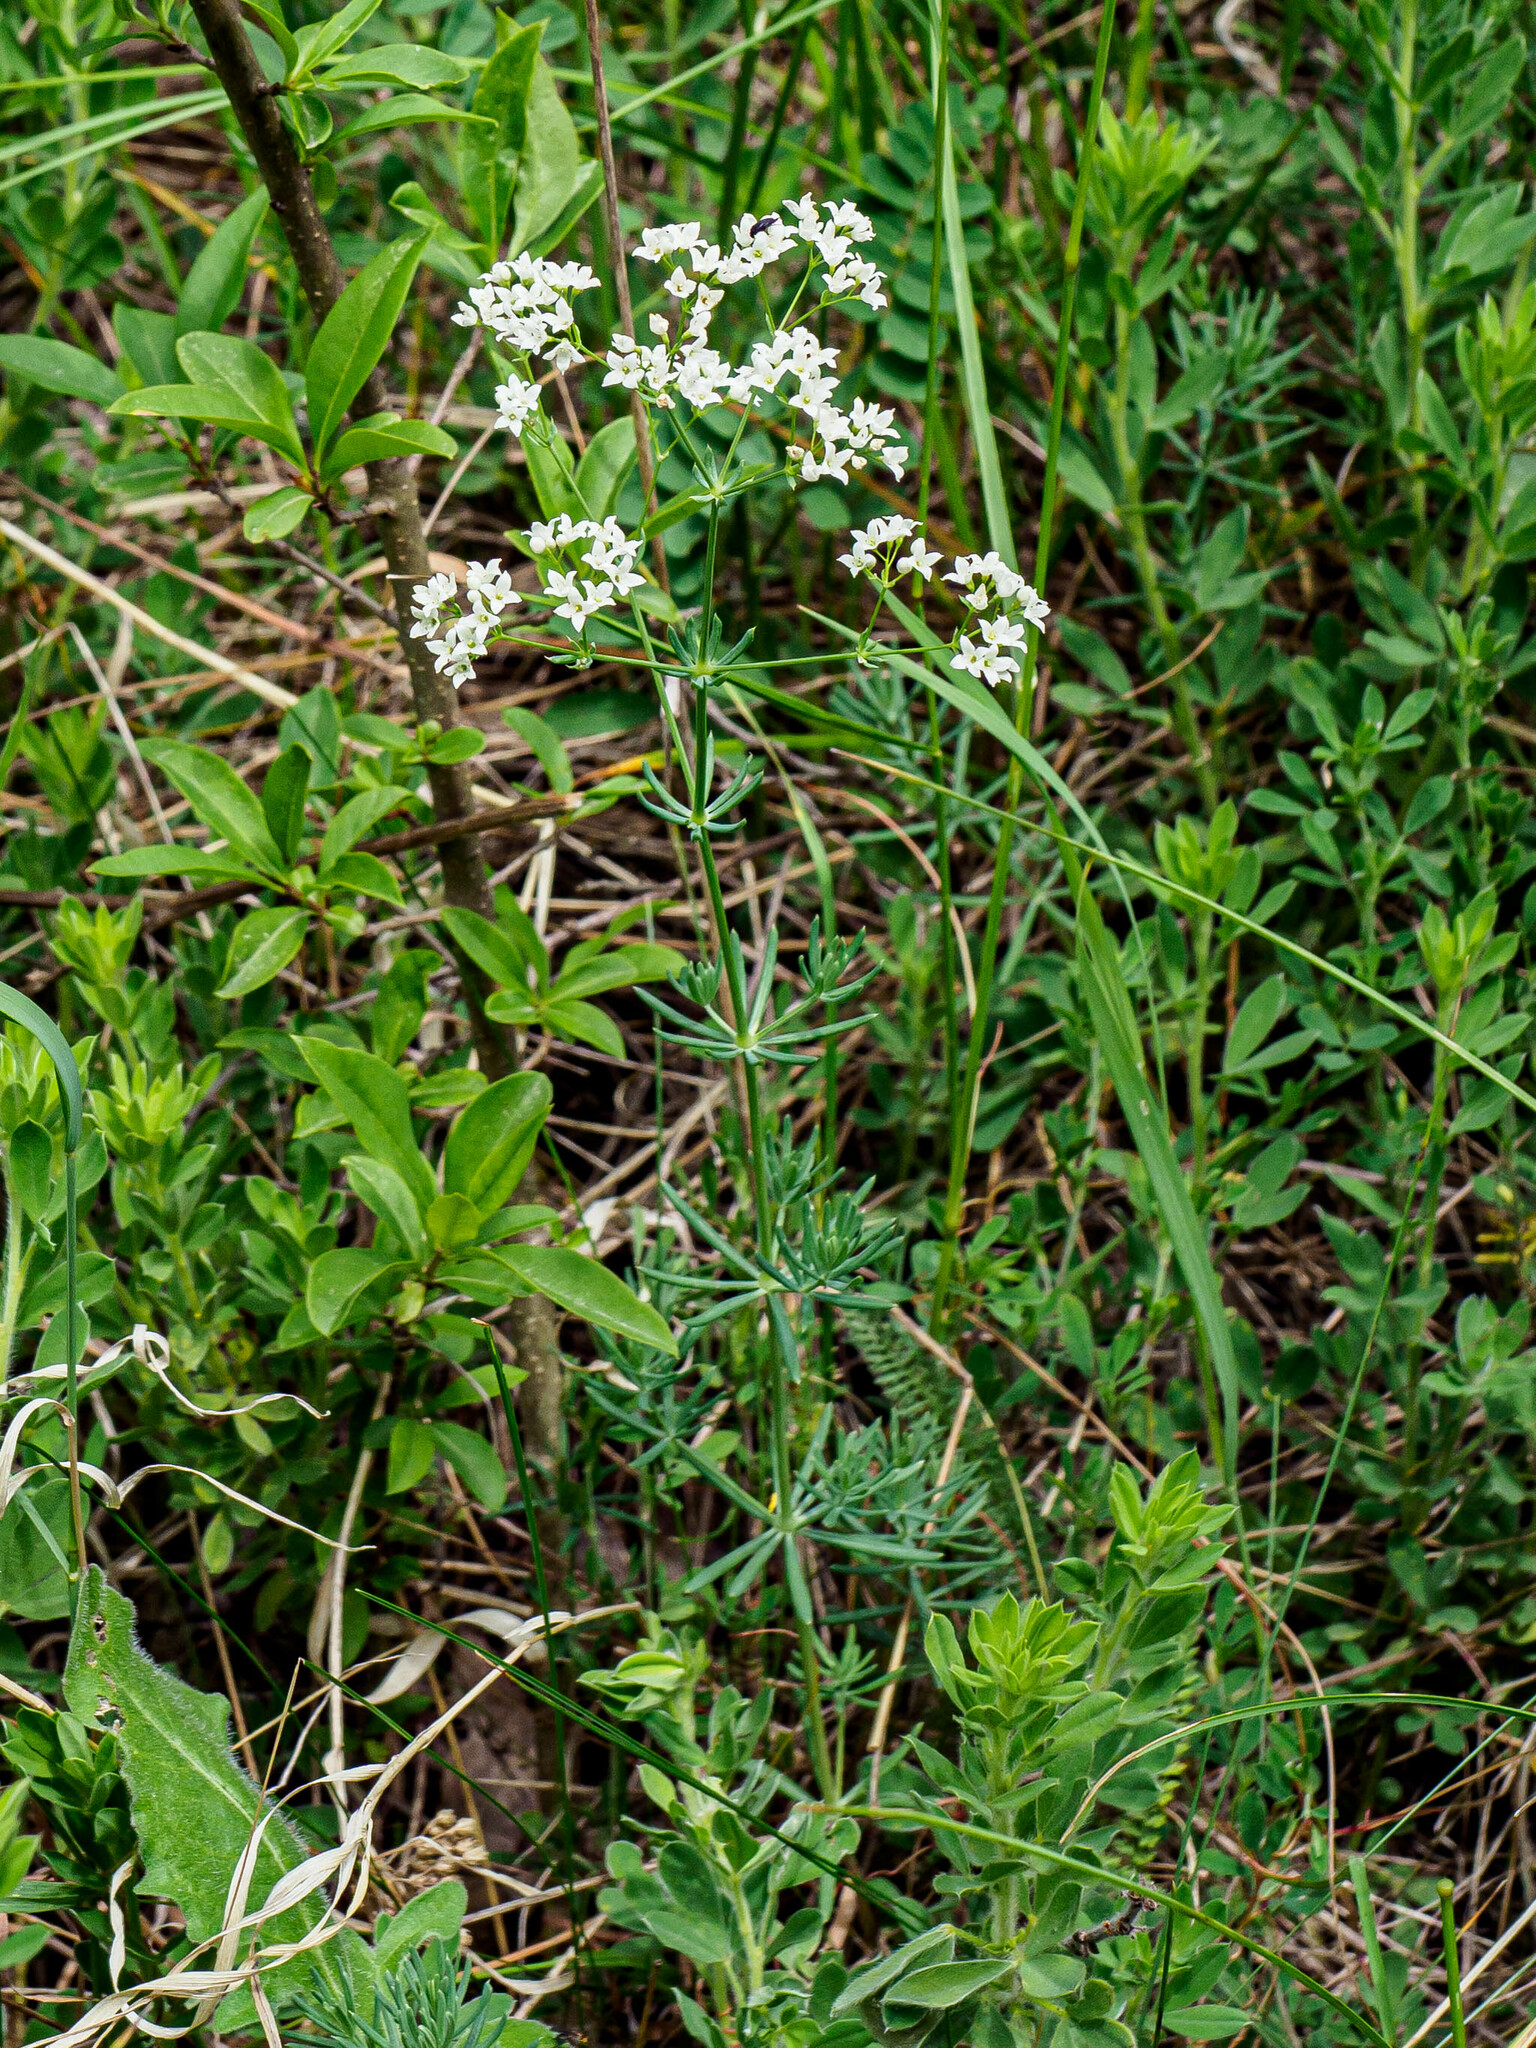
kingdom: Plantae
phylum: Tracheophyta
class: Magnoliopsida
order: Gentianales
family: Rubiaceae
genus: Galium
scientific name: Galium glaucum
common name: Waxy bedstraw
